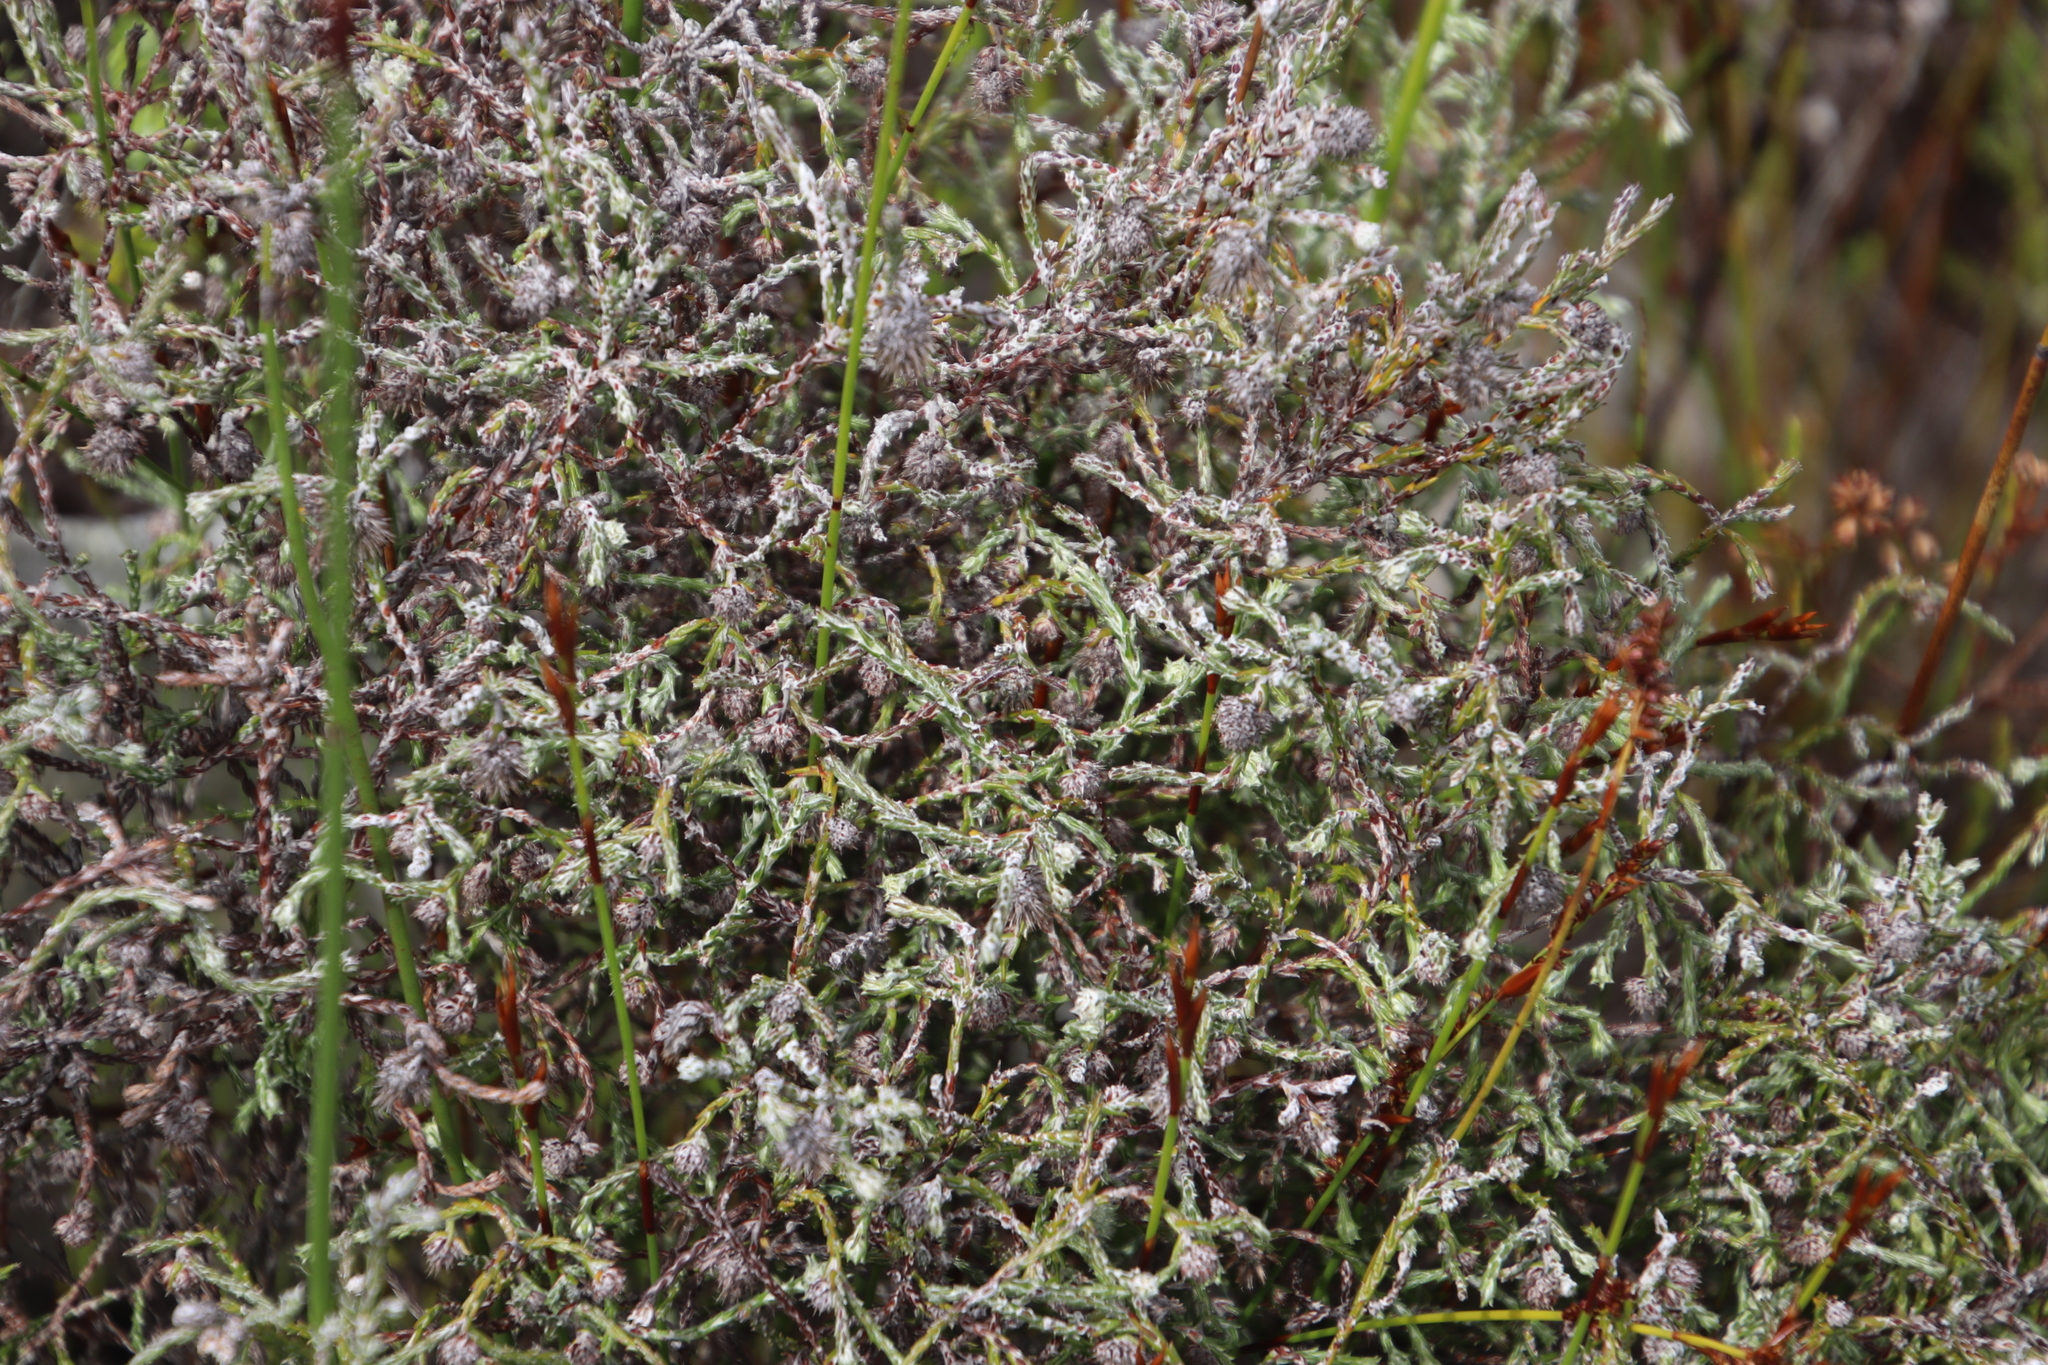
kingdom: Plantae
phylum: Tracheophyta
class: Magnoliopsida
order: Asterales
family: Asteraceae
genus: Seriphium
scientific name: Seriphium incanum
